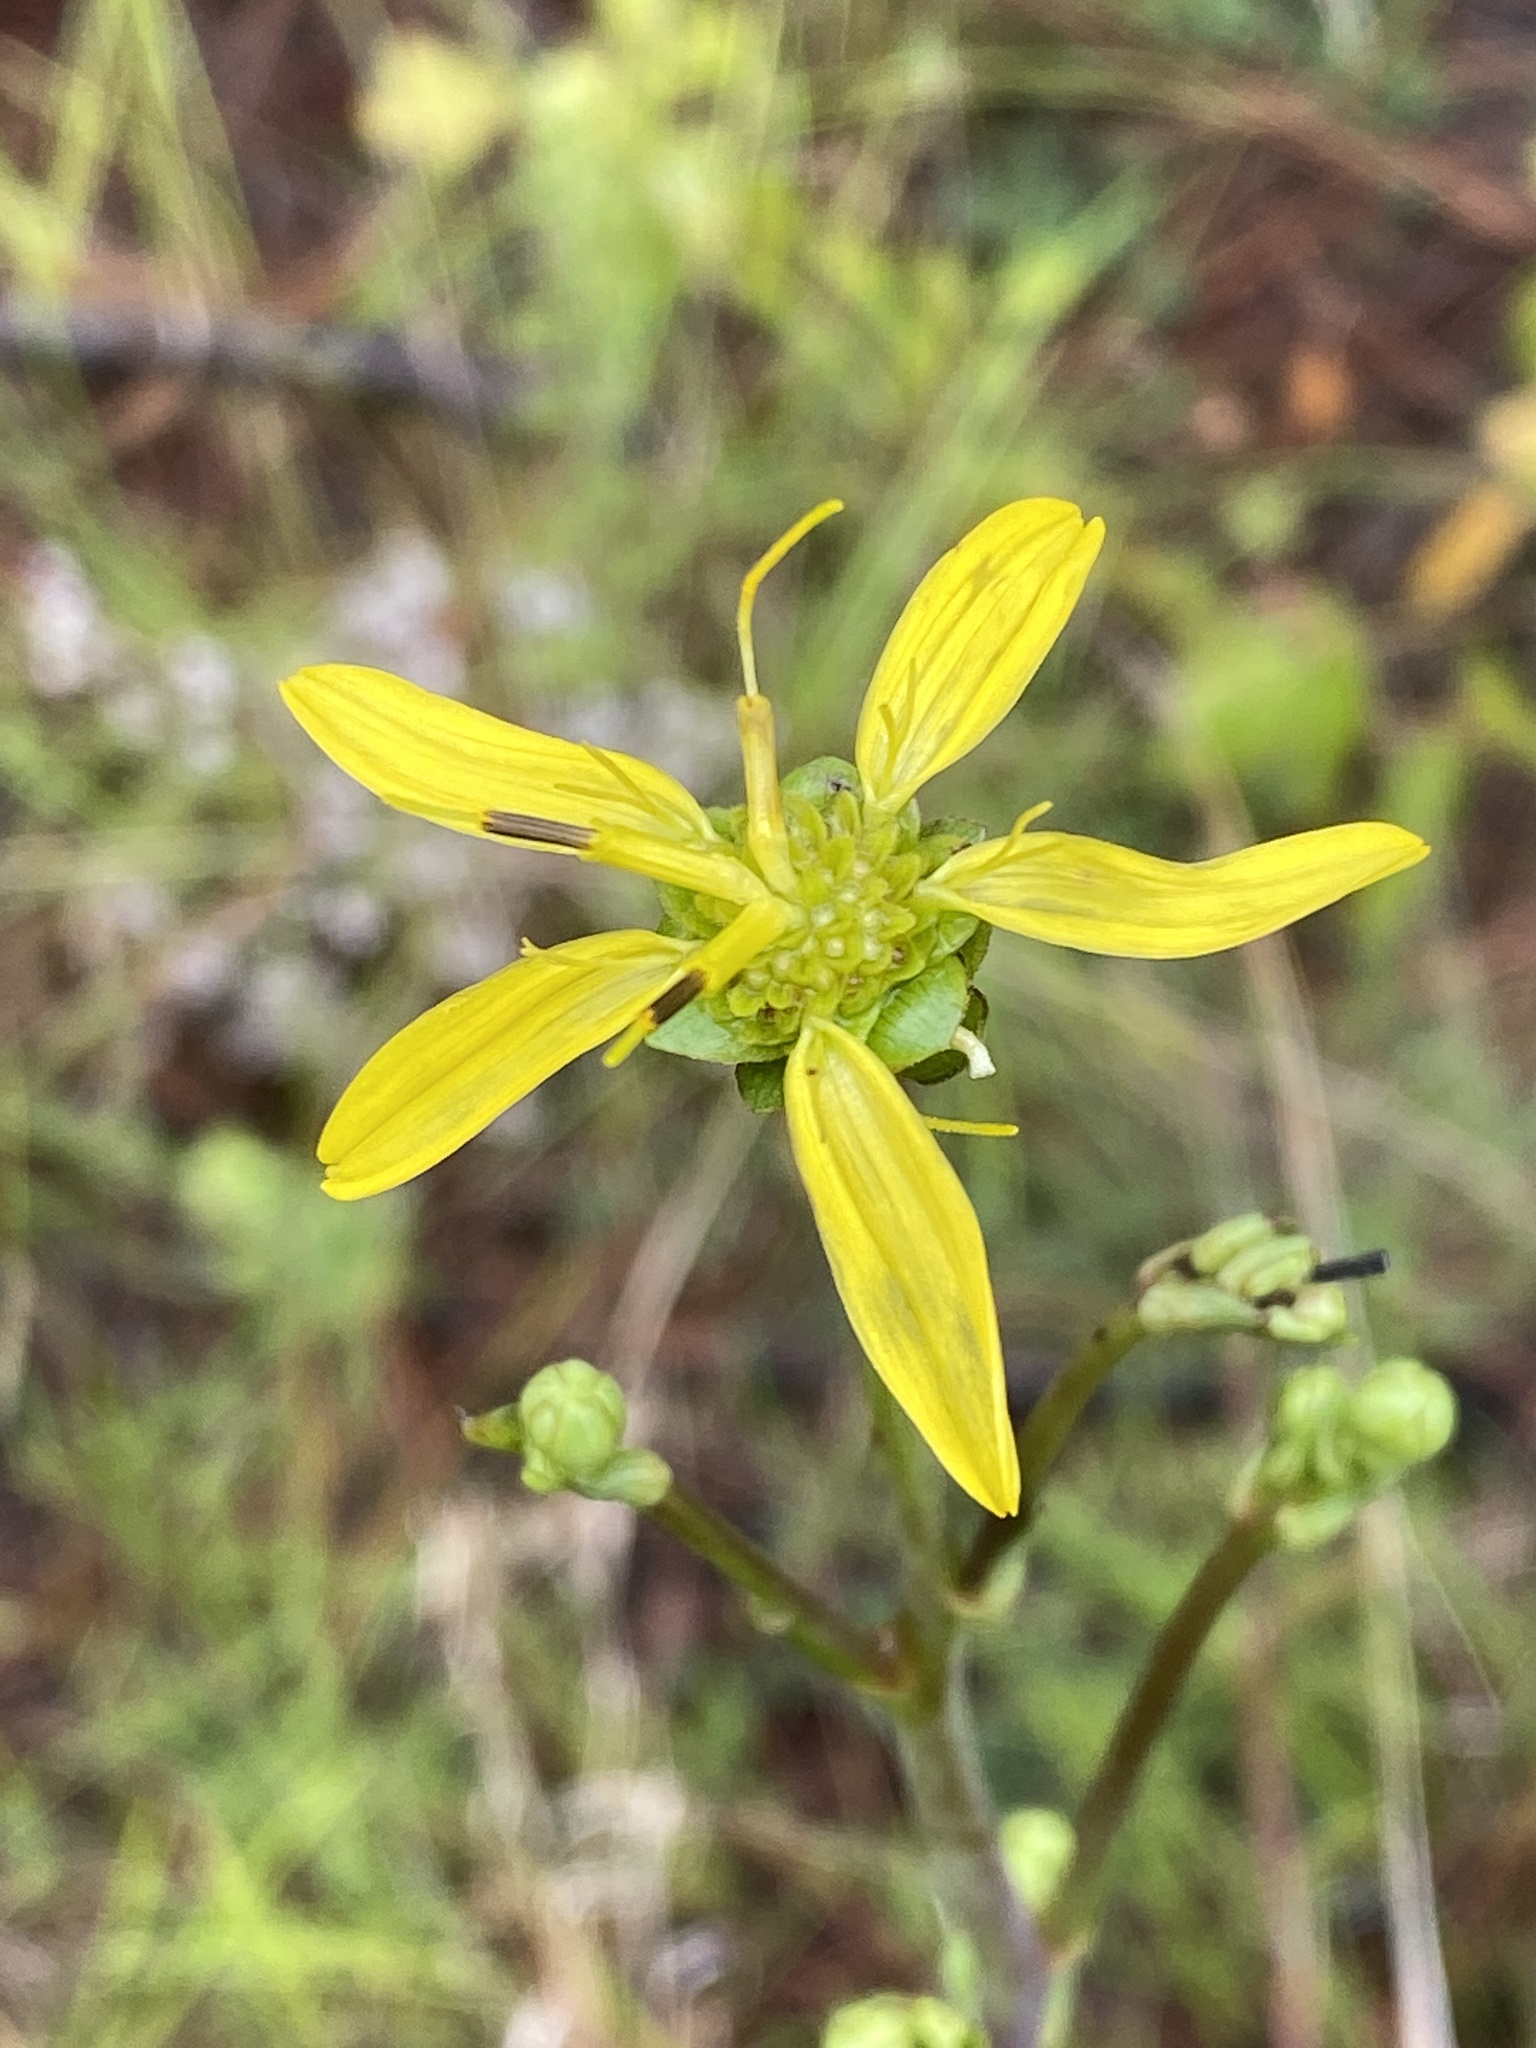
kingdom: Plantae
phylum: Tracheophyta
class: Magnoliopsida
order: Asterales
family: Asteraceae
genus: Silphium
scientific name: Silphium compositum
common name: Lesser basal-leaf rosinweed
